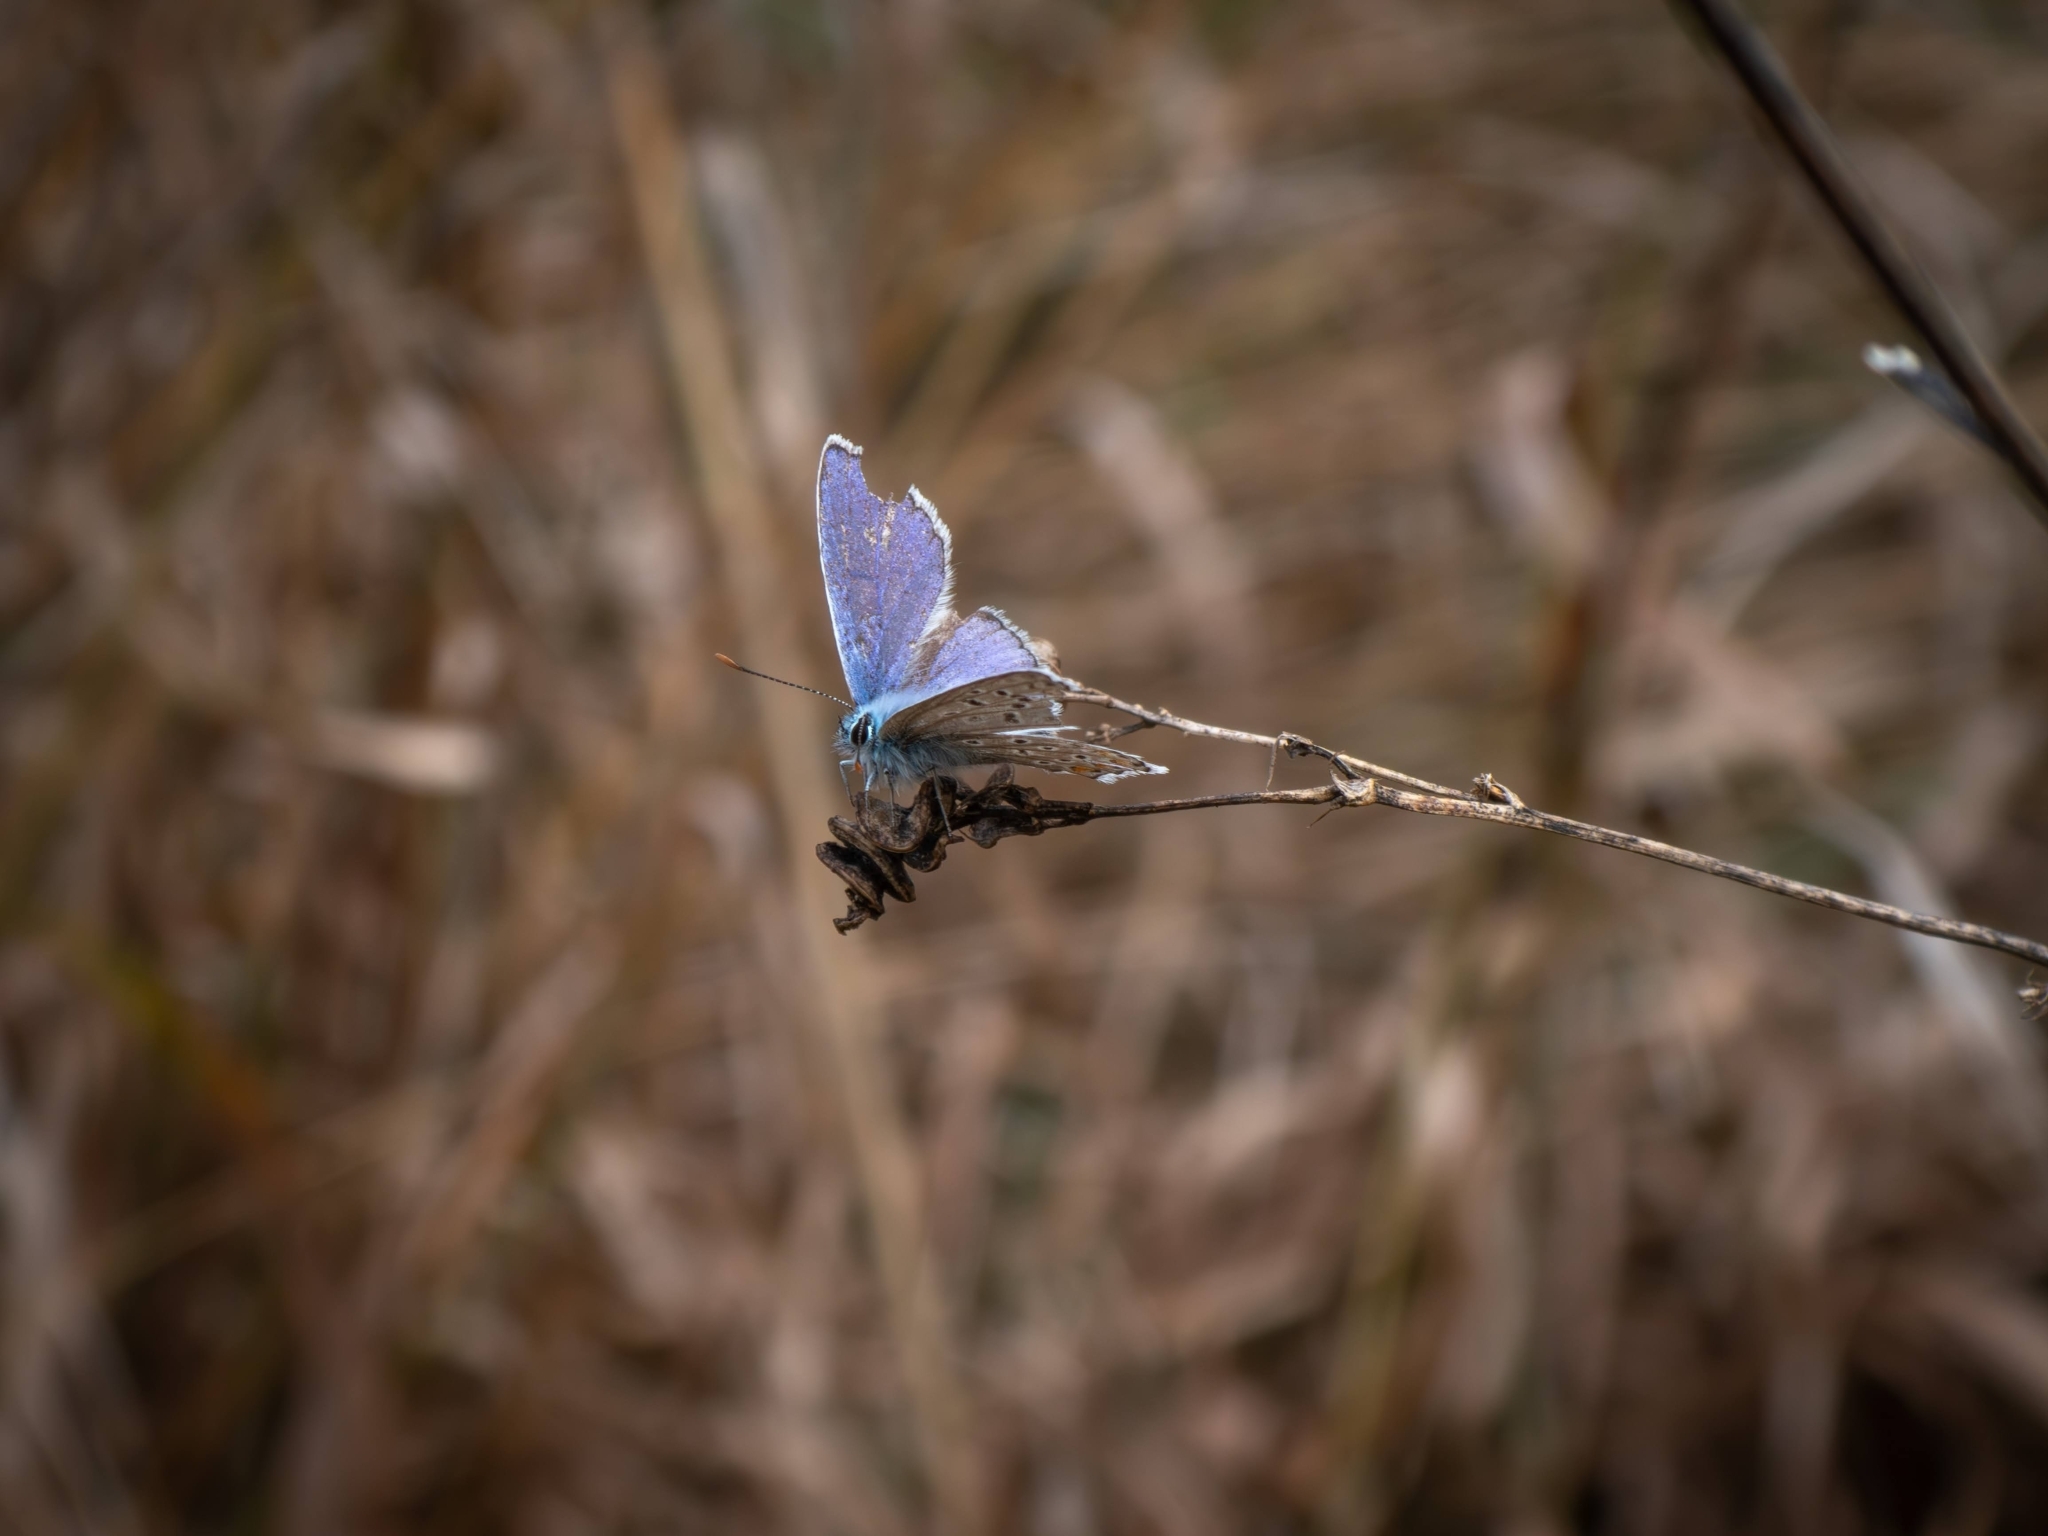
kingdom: Animalia
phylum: Arthropoda
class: Insecta
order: Lepidoptera
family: Lycaenidae
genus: Polyommatus
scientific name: Polyommatus icarus
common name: Common blue
